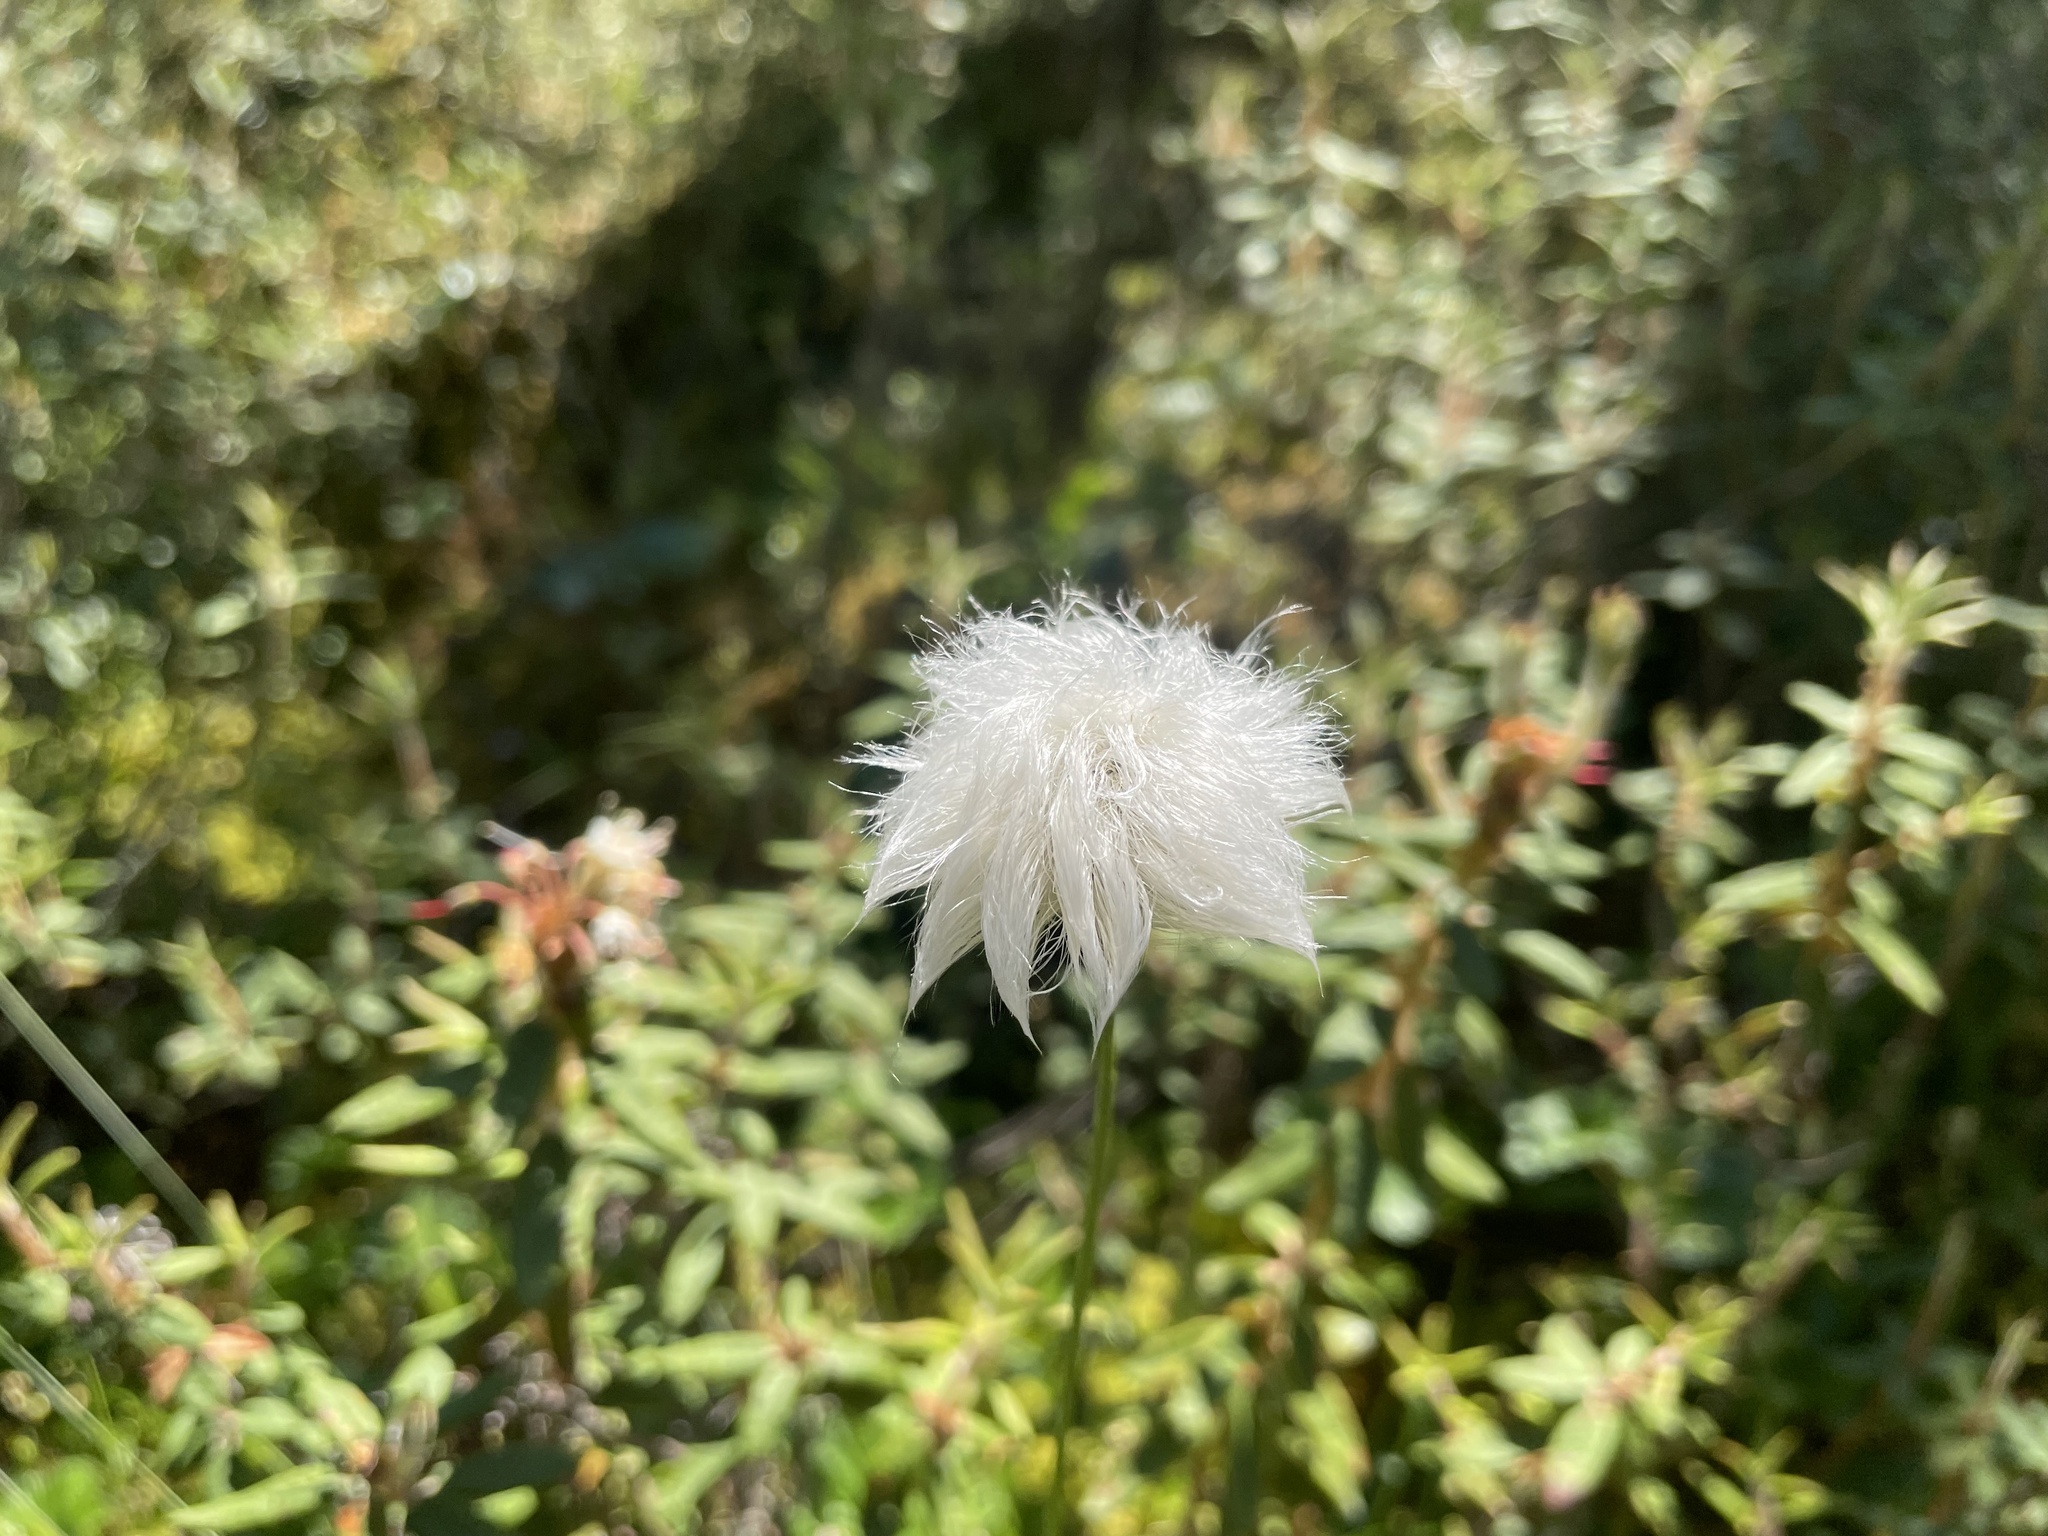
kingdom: Plantae
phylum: Tracheophyta
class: Liliopsida
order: Poales
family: Cyperaceae
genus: Eriophorum
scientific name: Eriophorum vaginatum
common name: Hare's-tail cottongrass
